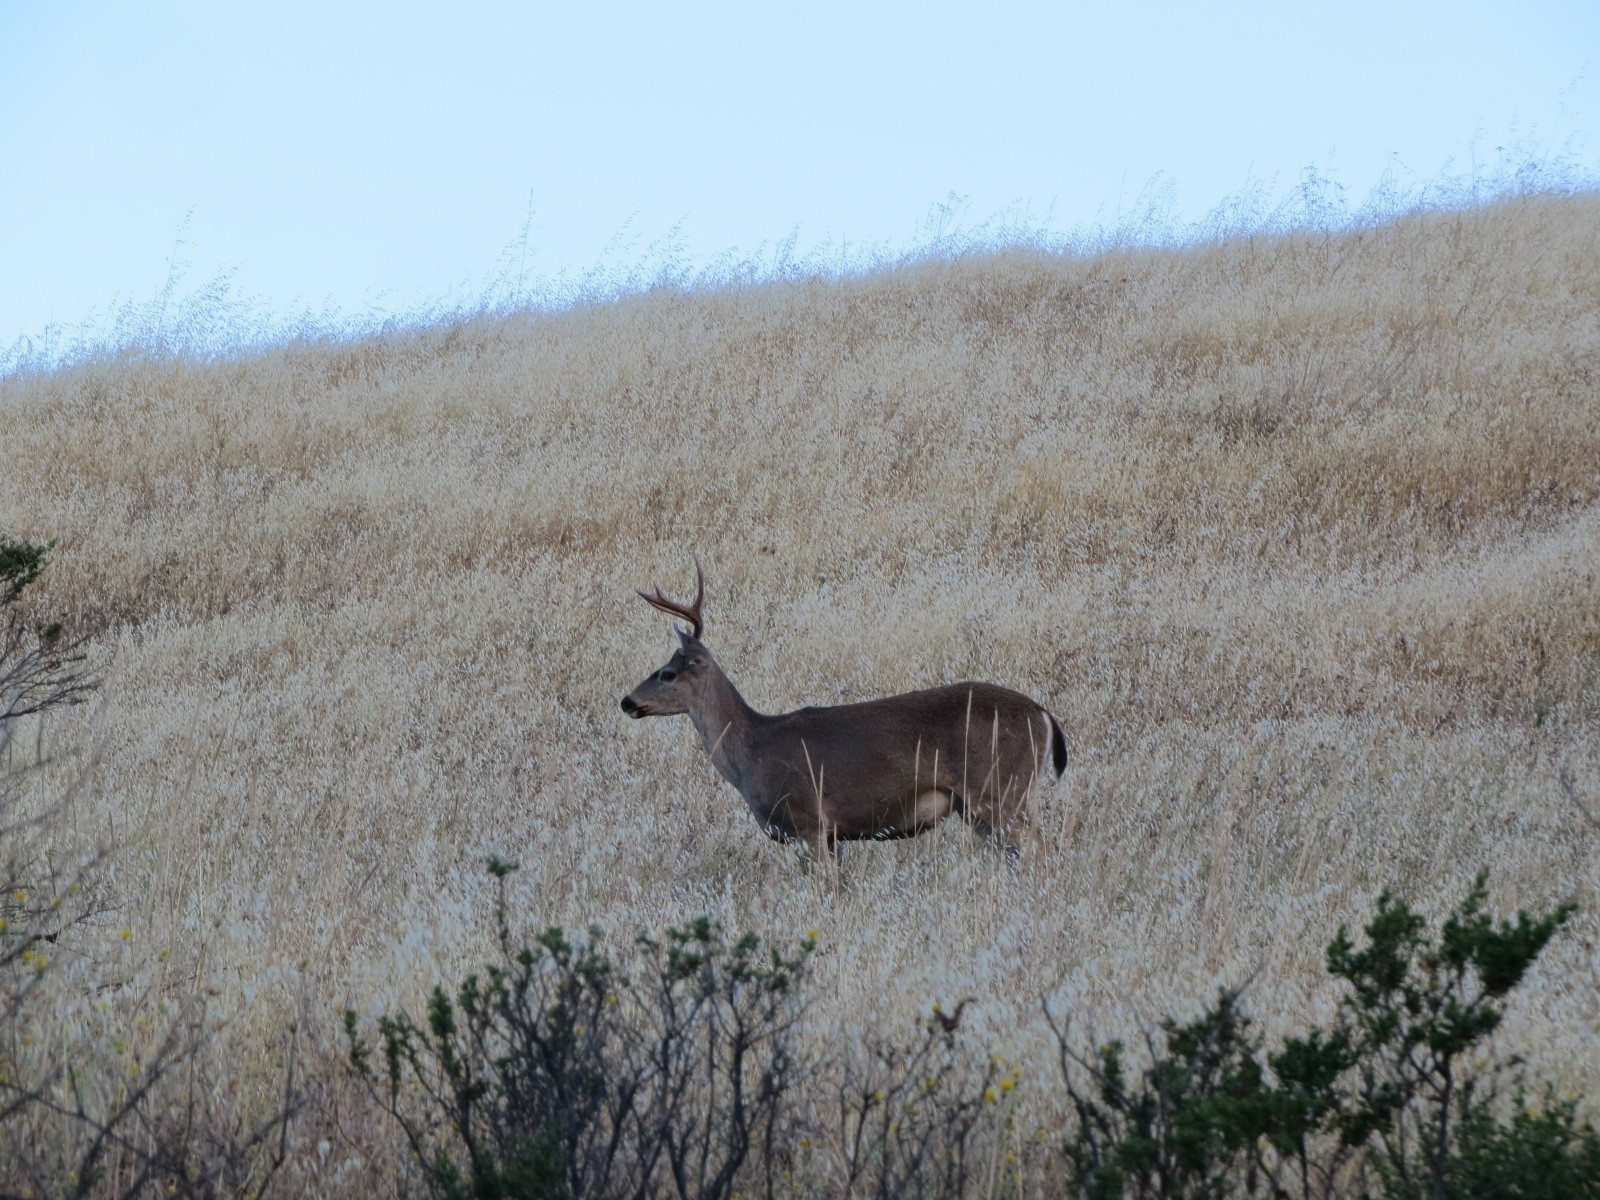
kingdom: Animalia
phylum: Chordata
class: Mammalia
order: Artiodactyla
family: Cervidae
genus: Odocoileus
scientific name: Odocoileus hemionus
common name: Mule deer
